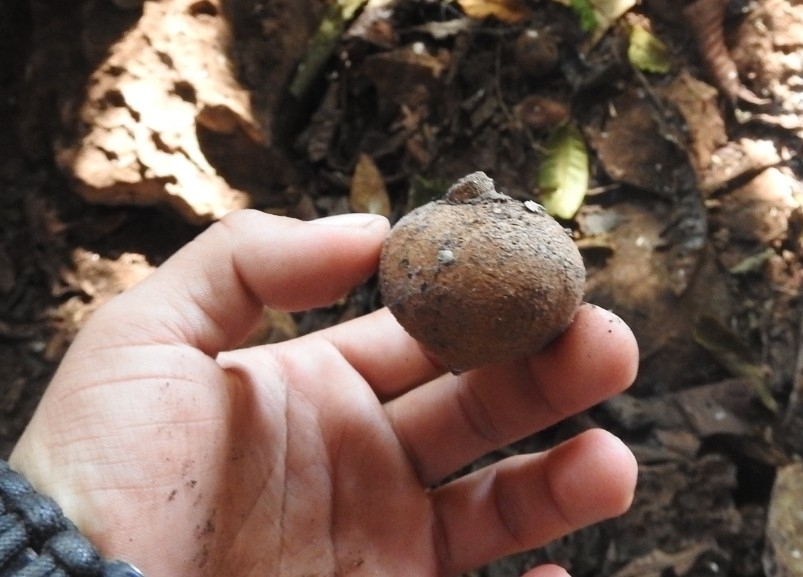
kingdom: Plantae
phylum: Tracheophyta
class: Magnoliopsida
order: Ericales
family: Sapotaceae
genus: Manilkara
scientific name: Manilkara zapota
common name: Sapodilla
